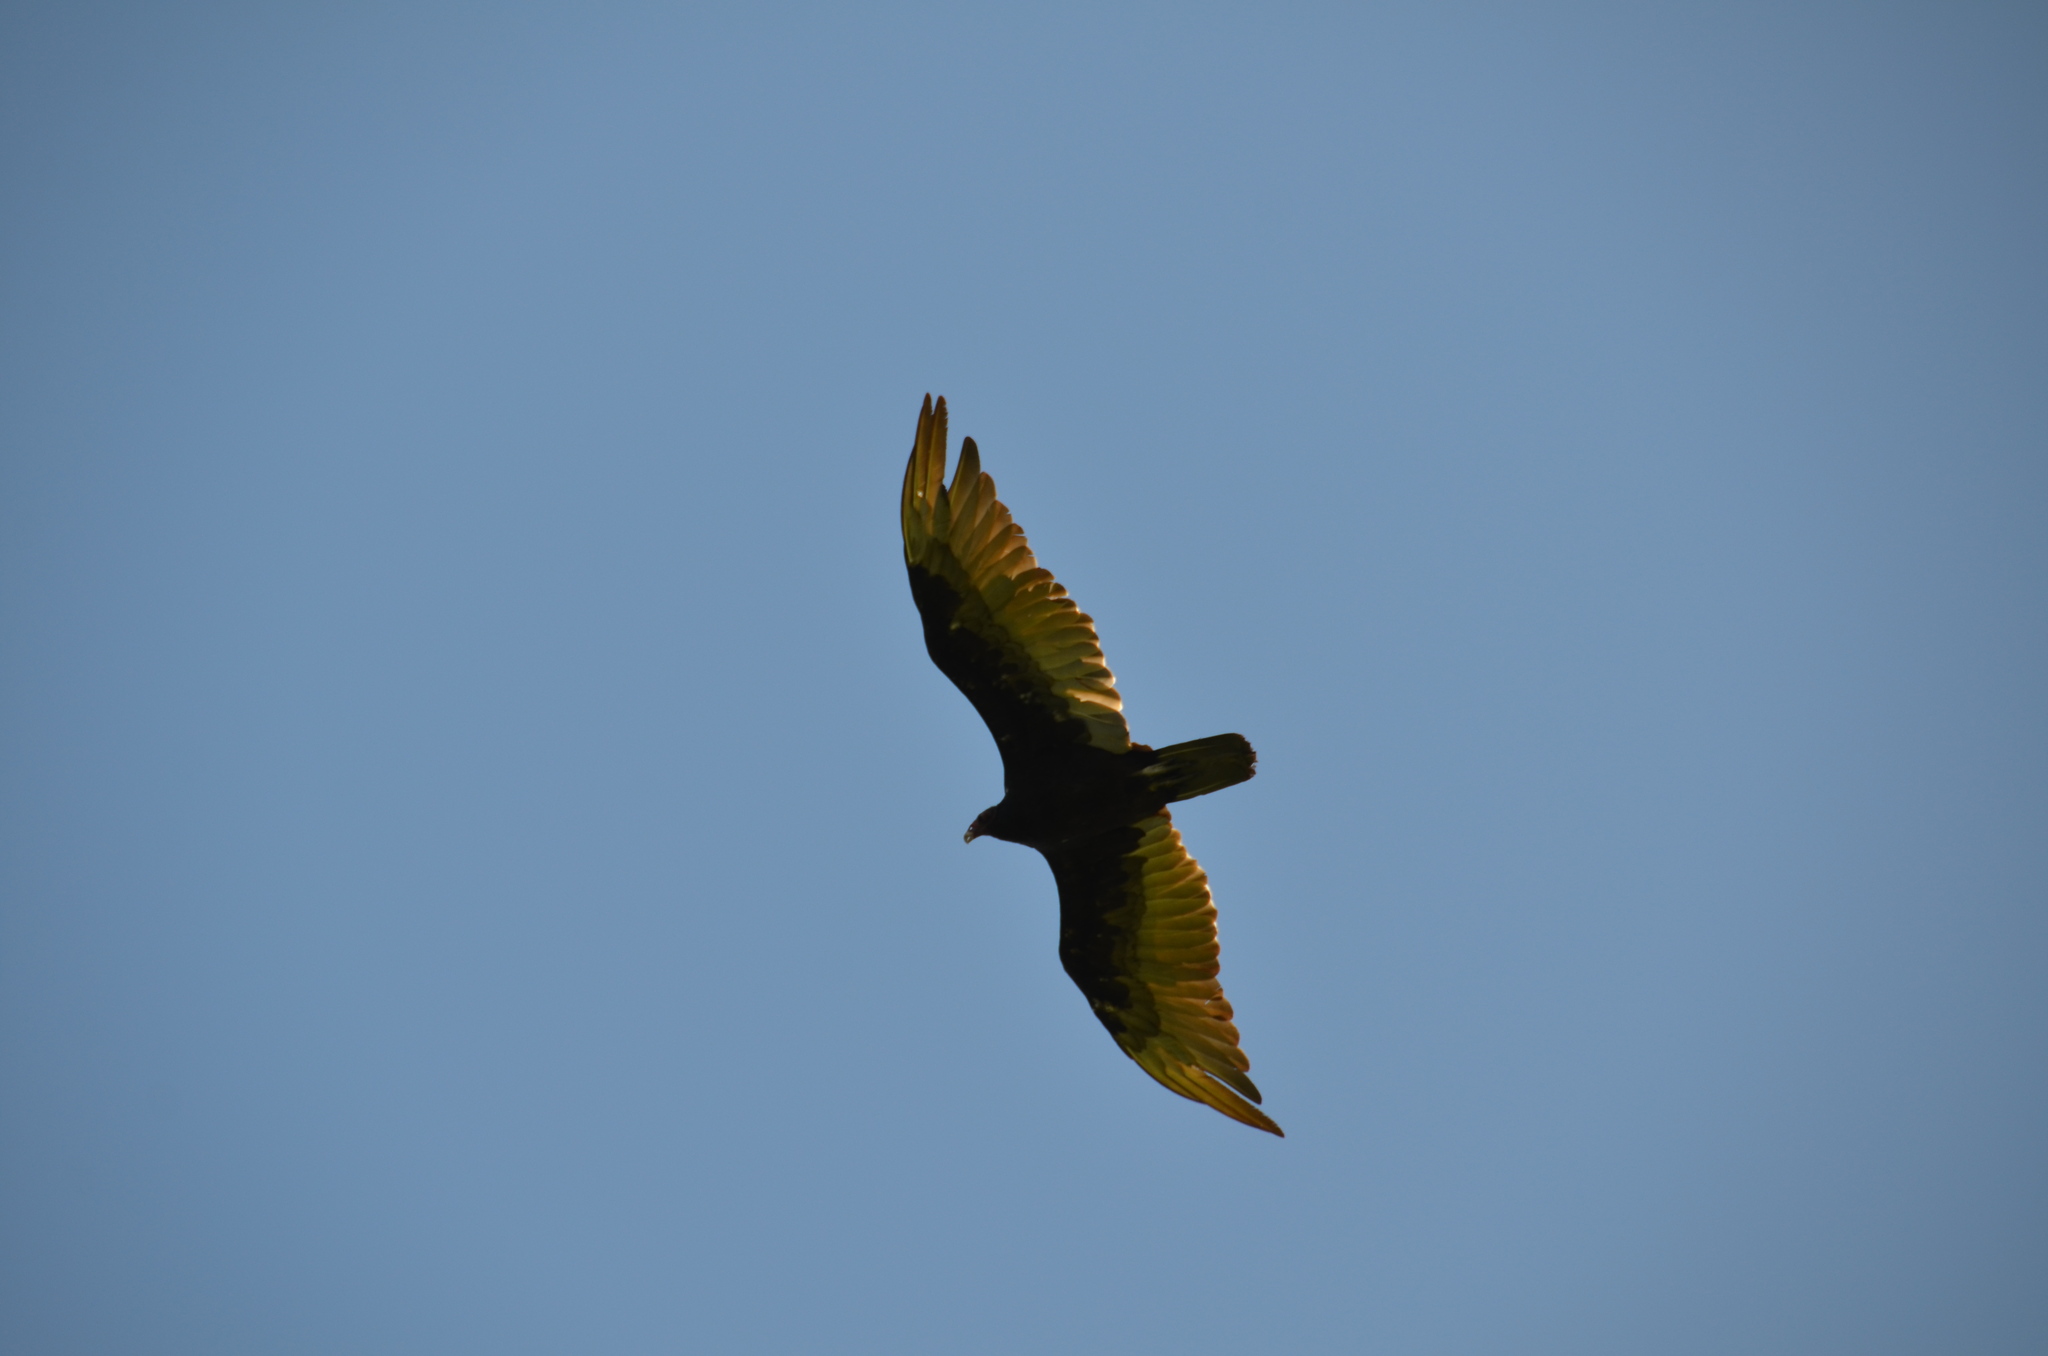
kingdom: Animalia
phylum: Chordata
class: Aves
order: Accipitriformes
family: Cathartidae
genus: Cathartes
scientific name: Cathartes aura
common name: Turkey vulture
